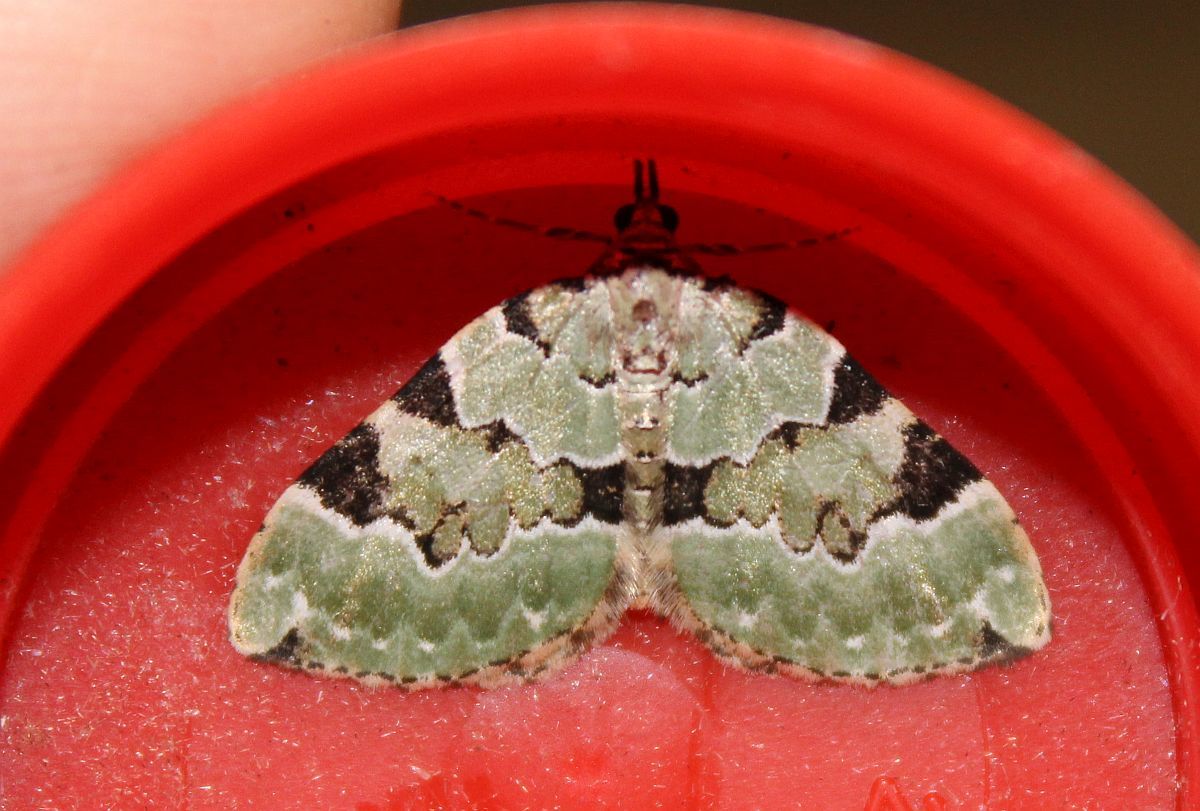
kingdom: Animalia
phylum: Arthropoda
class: Insecta
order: Lepidoptera
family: Geometridae
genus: Colostygia
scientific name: Colostygia pectinataria
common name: Green carpet
